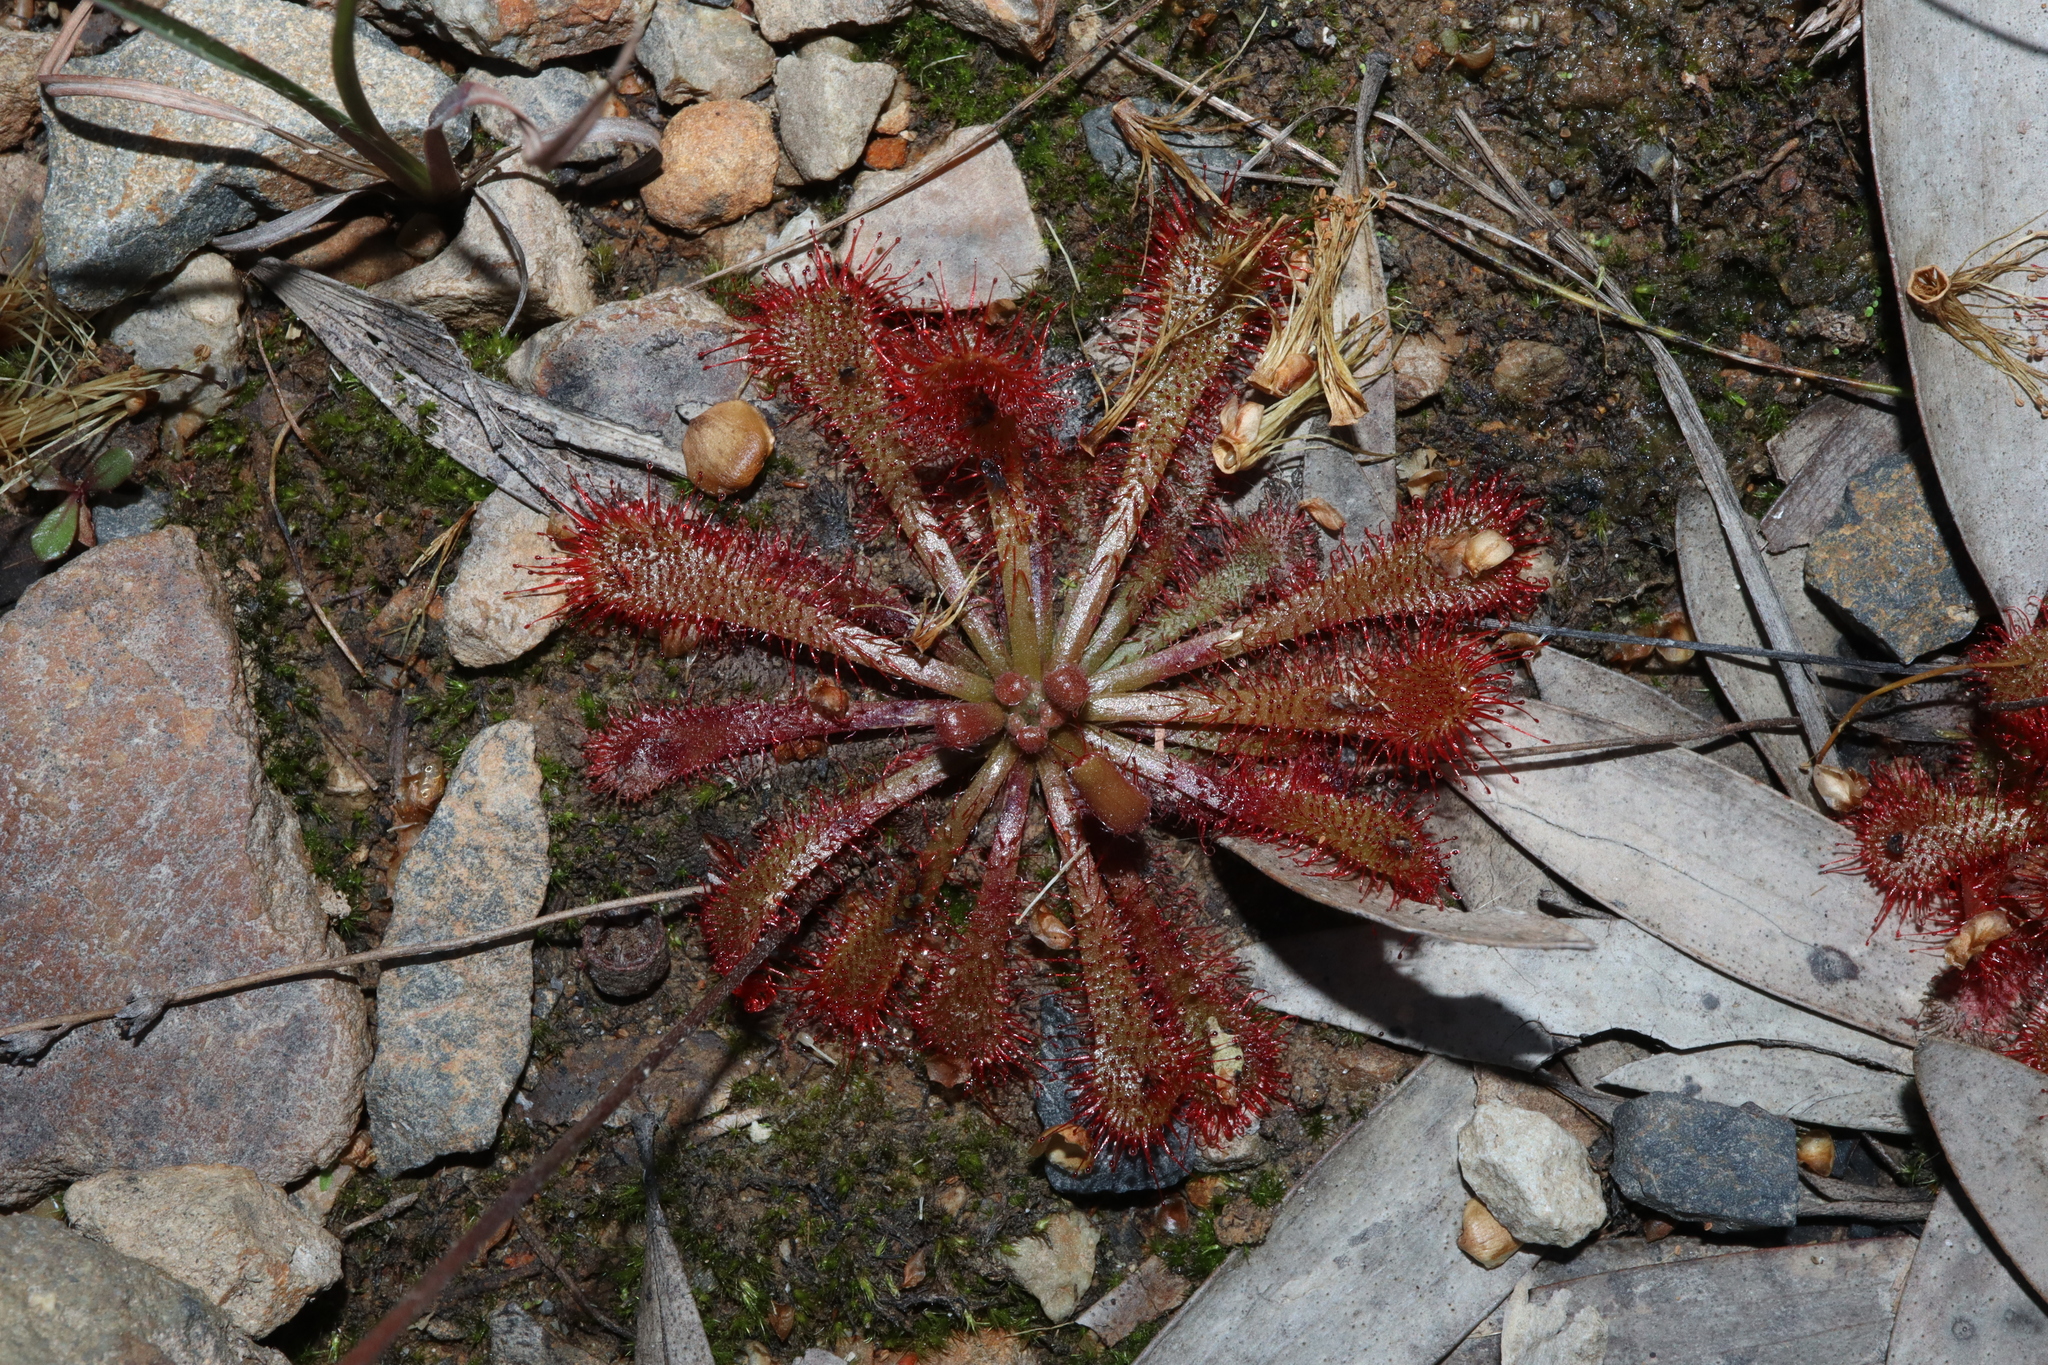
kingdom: Plantae
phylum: Tracheophyta
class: Magnoliopsida
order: Caryophyllales
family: Droseraceae
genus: Drosera
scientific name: Drosera spatulata
